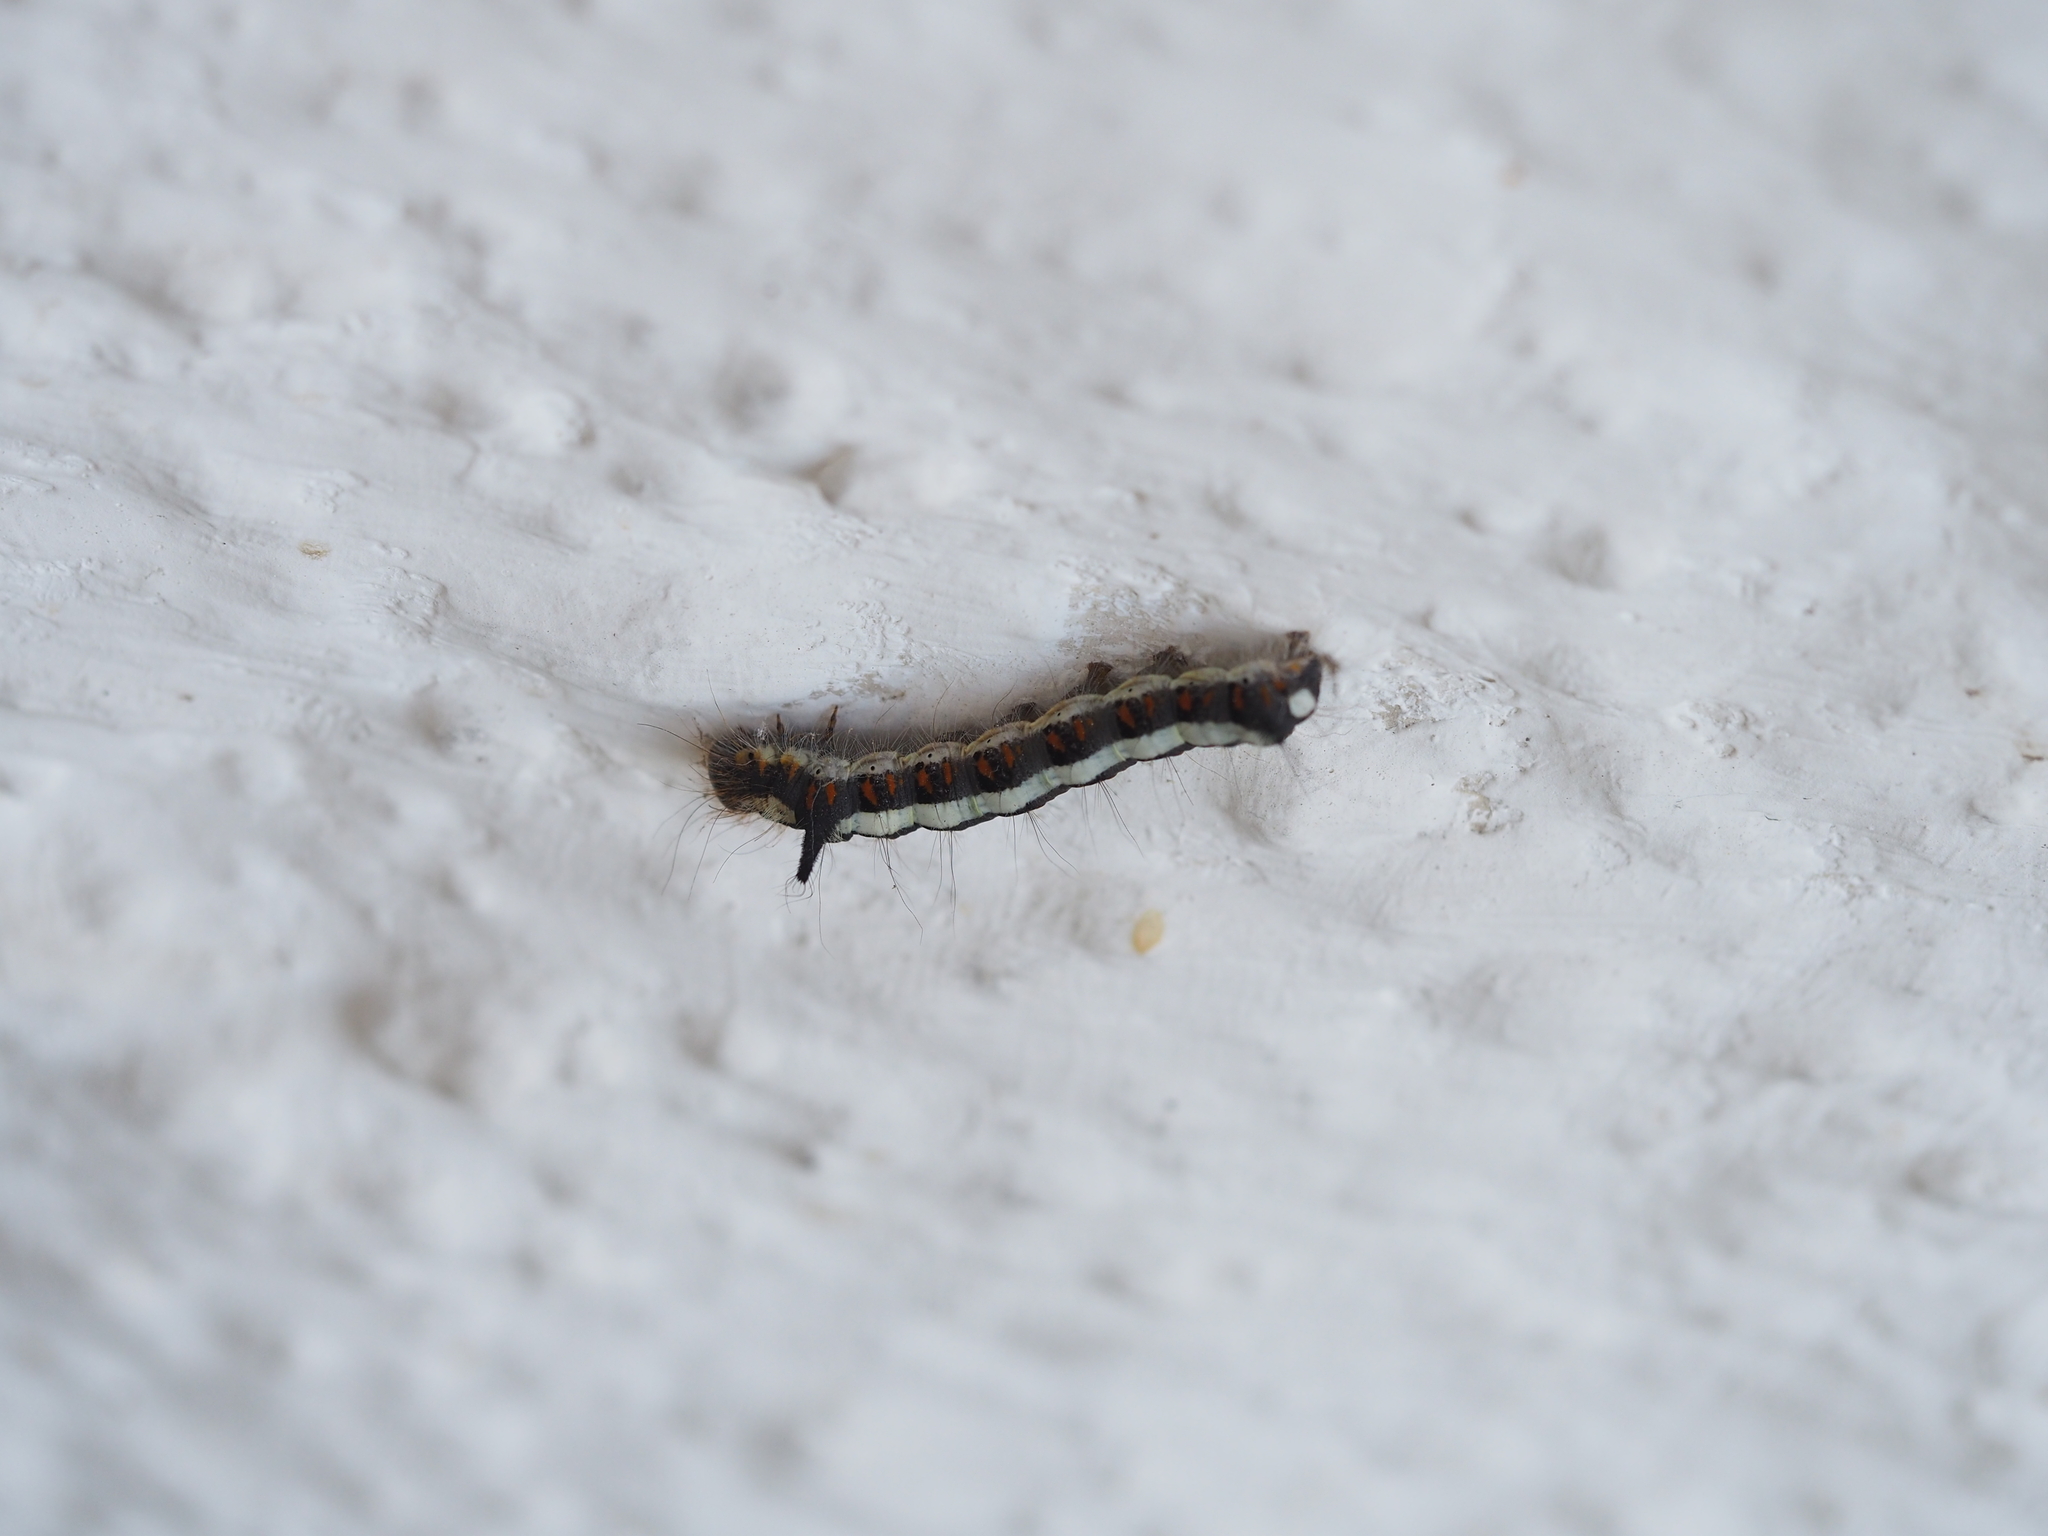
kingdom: Animalia
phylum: Arthropoda
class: Insecta
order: Lepidoptera
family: Noctuidae
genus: Acronicta
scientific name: Acronicta psi
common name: Grey dagger
